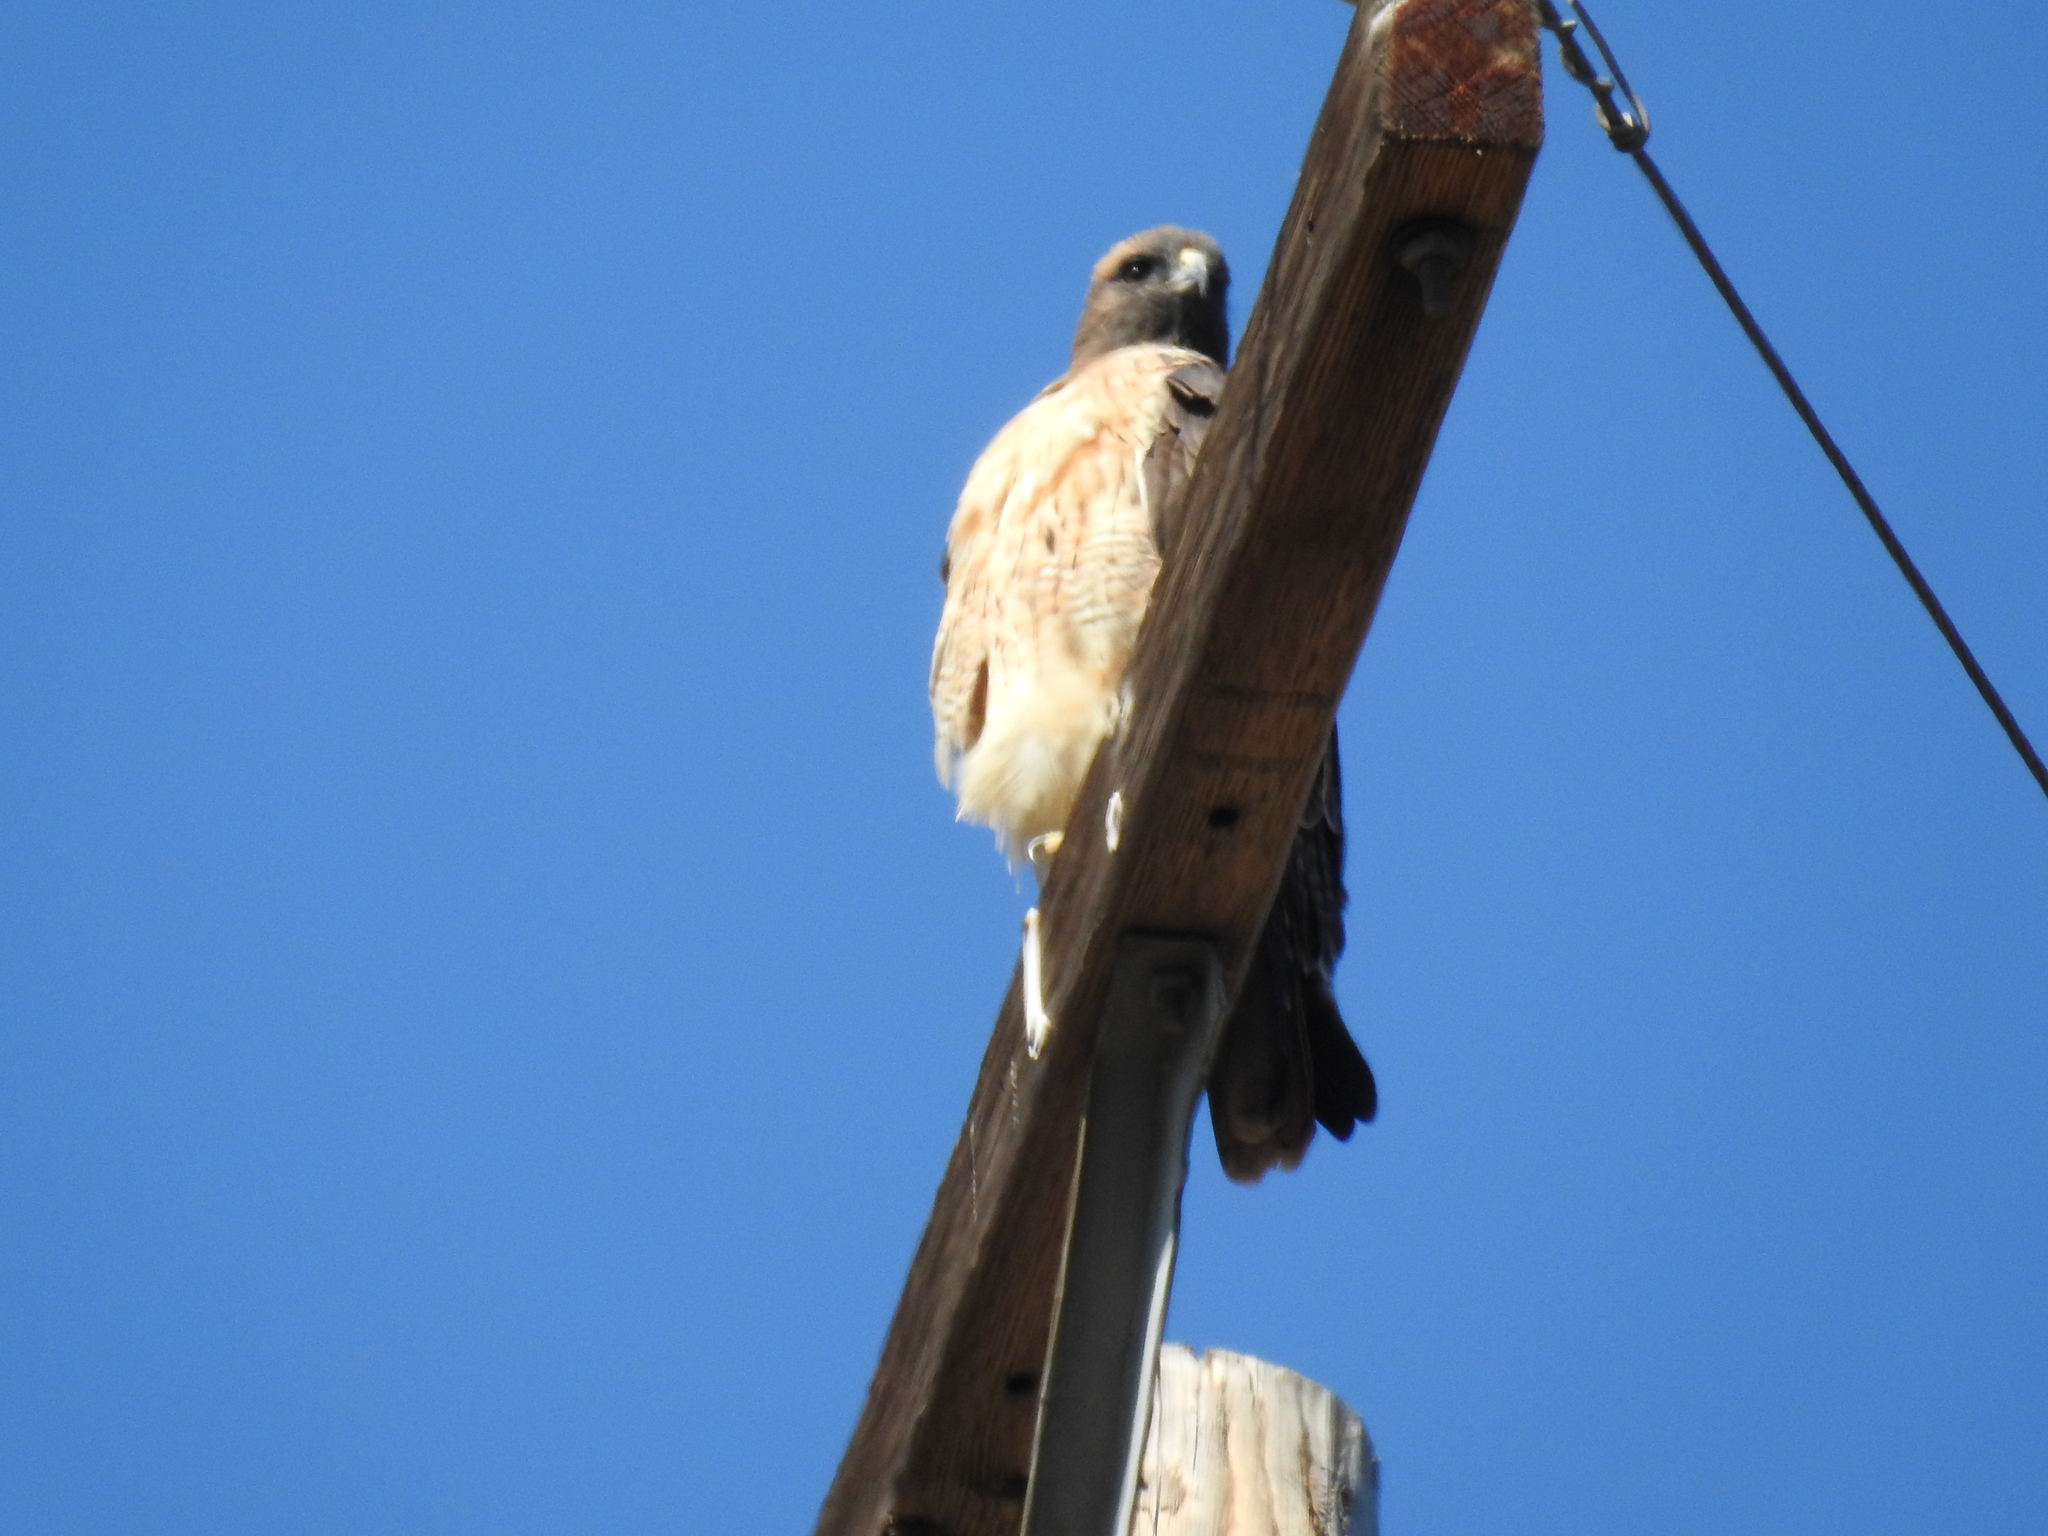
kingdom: Animalia
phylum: Chordata
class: Aves
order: Accipitriformes
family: Accipitridae
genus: Buteo
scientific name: Buteo jamaicensis
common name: Red-tailed hawk
